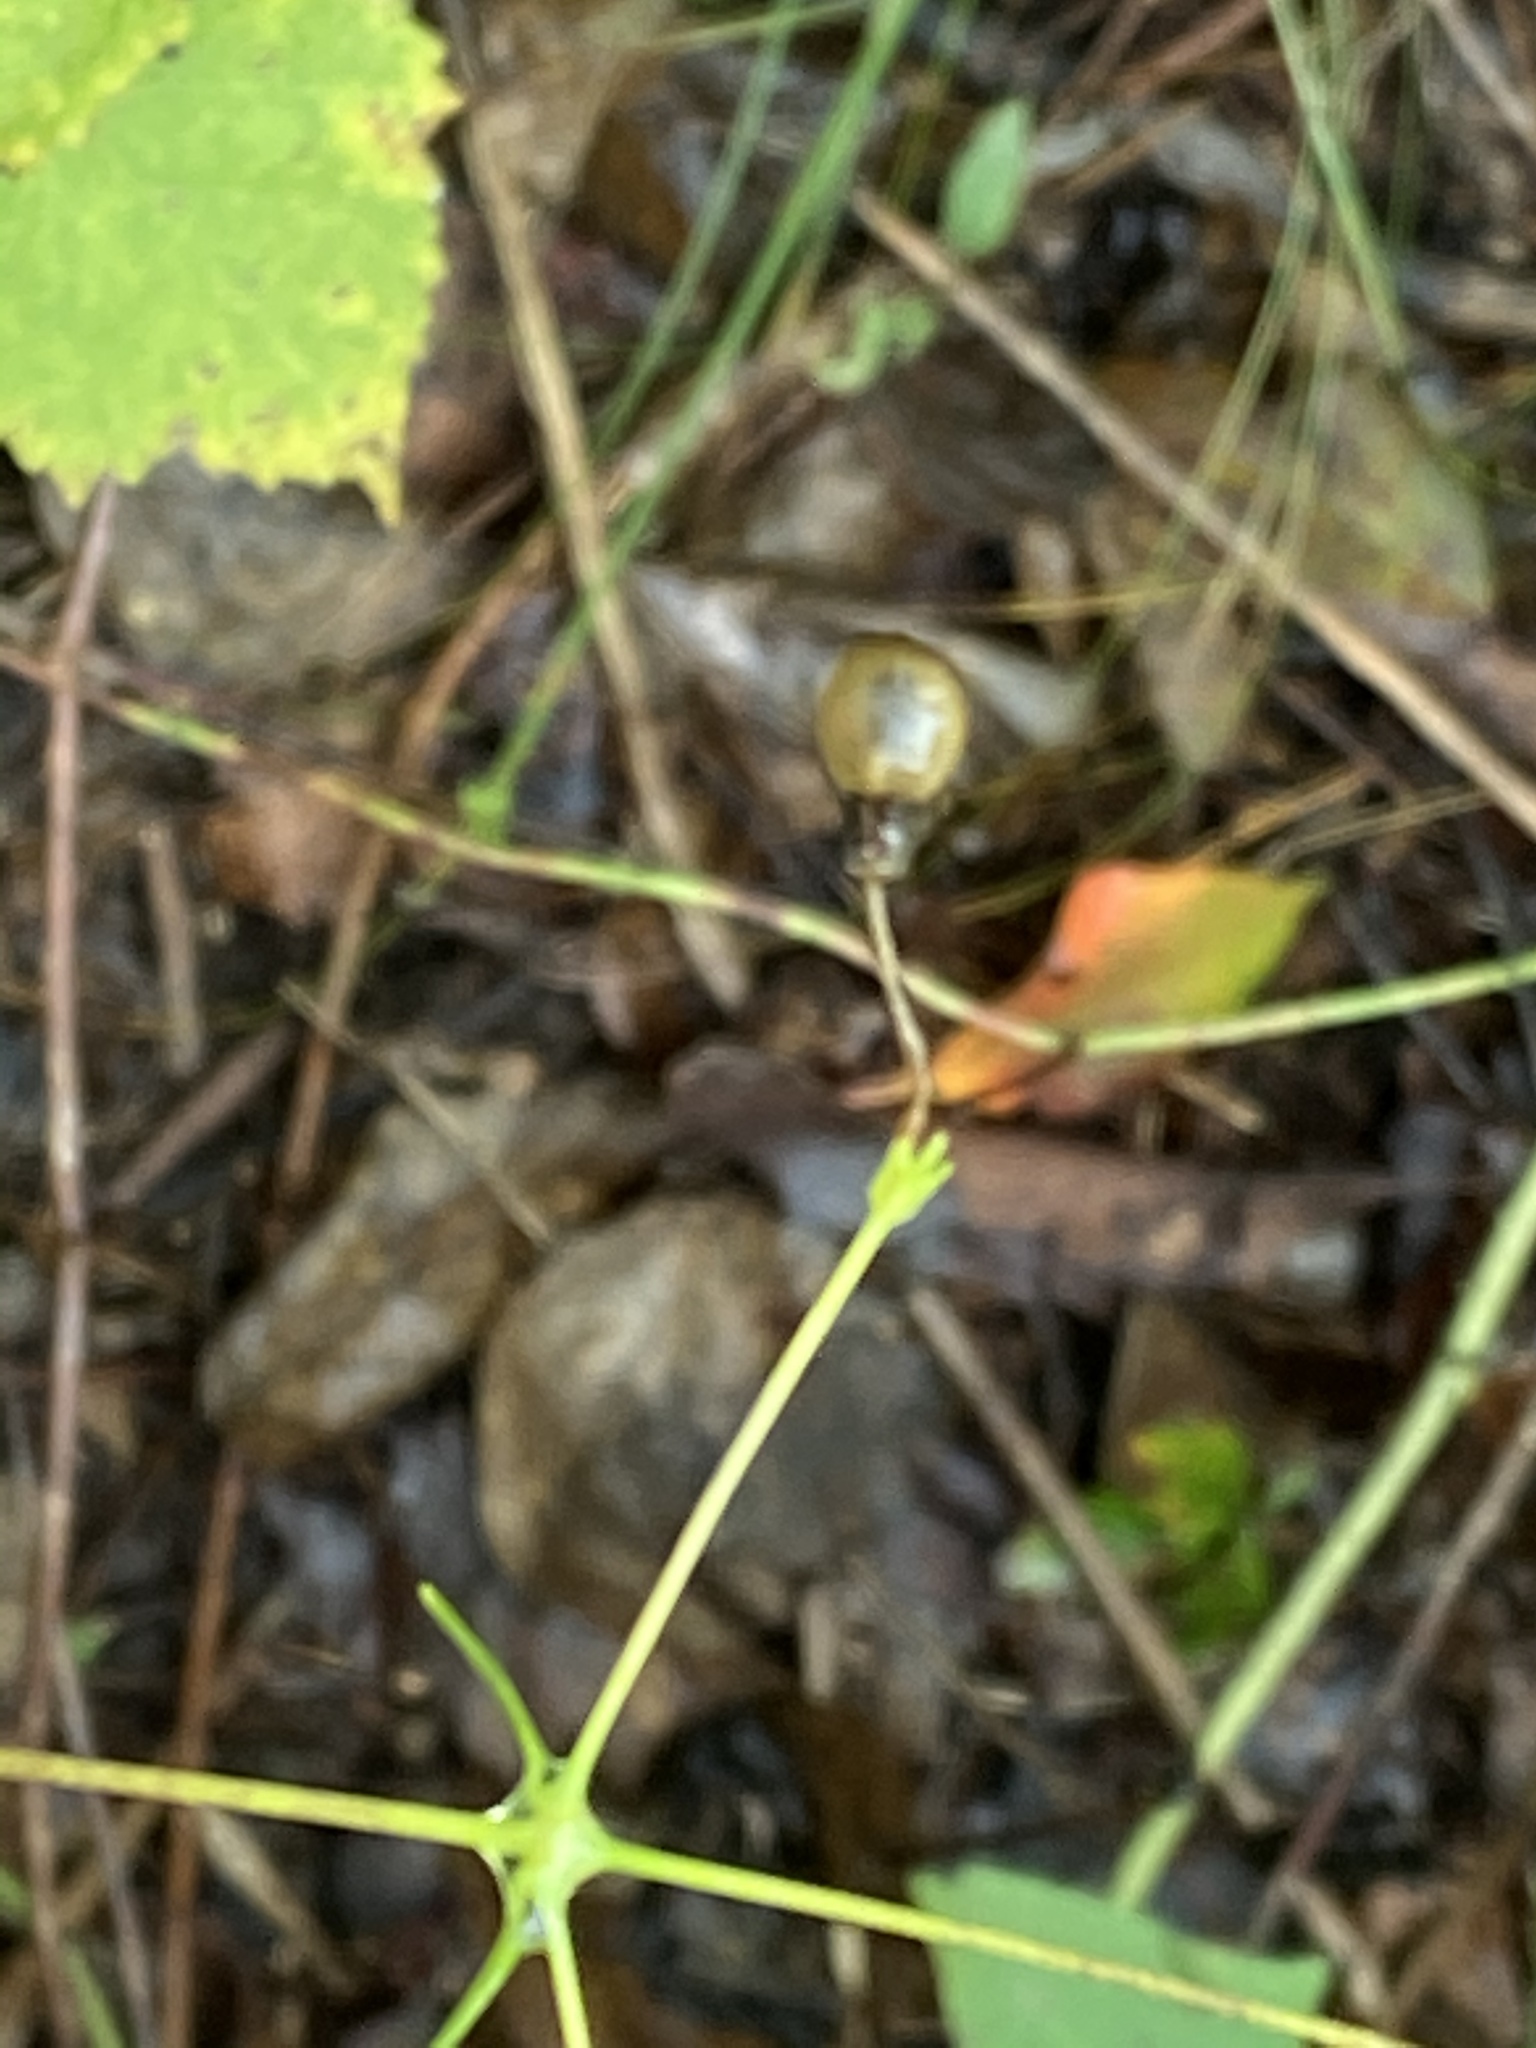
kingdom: Plantae
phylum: Tracheophyta
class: Magnoliopsida
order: Caryophyllales
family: Caryophyllaceae
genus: Silene
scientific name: Silene stellata
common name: Starry campion
